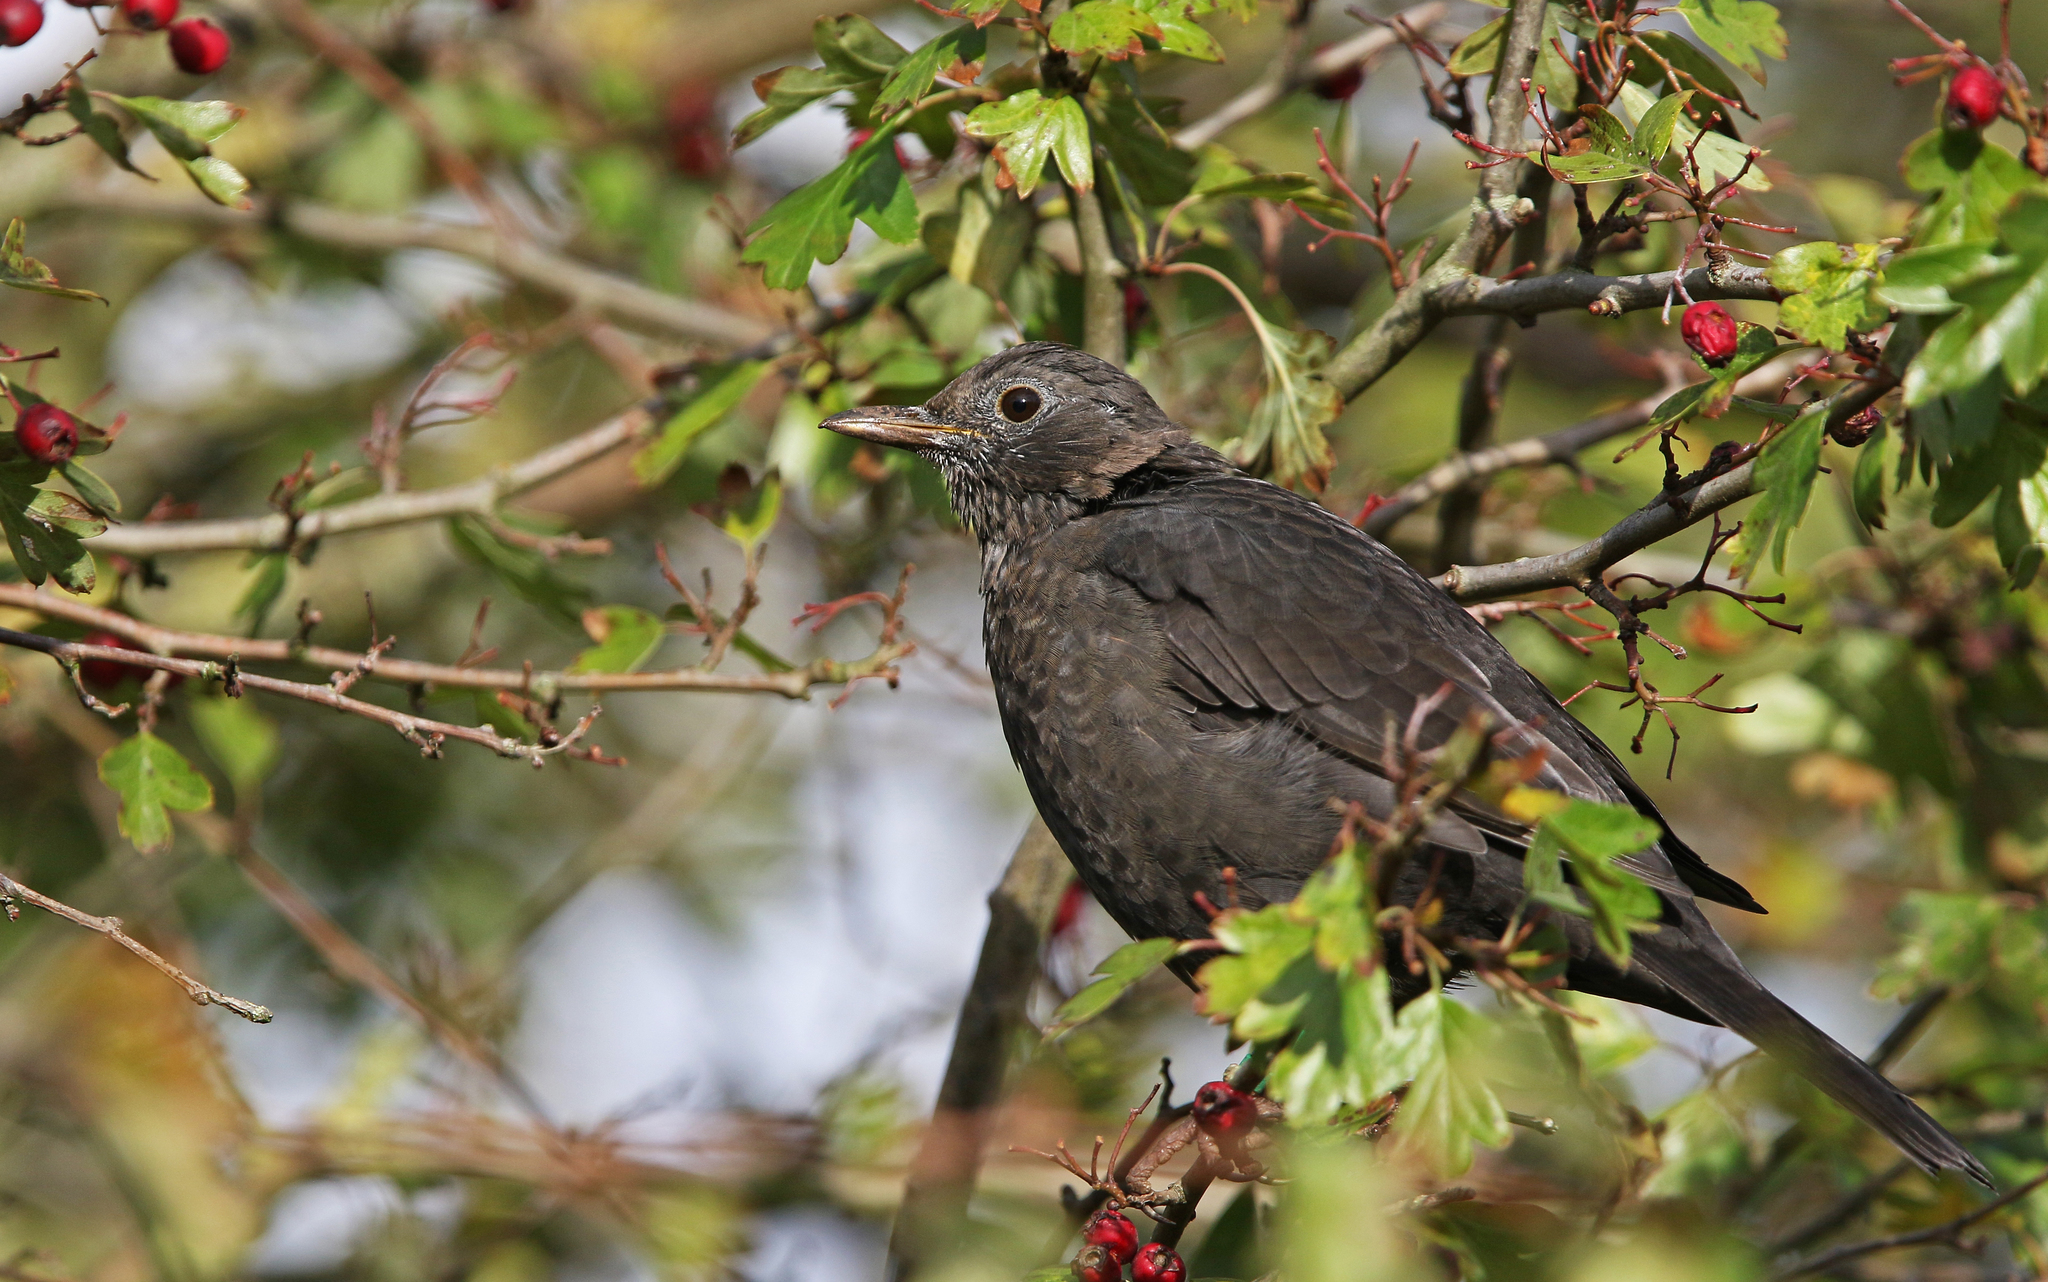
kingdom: Animalia
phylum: Chordata
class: Aves
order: Passeriformes
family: Turdidae
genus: Turdus
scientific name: Turdus merula
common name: Common blackbird
